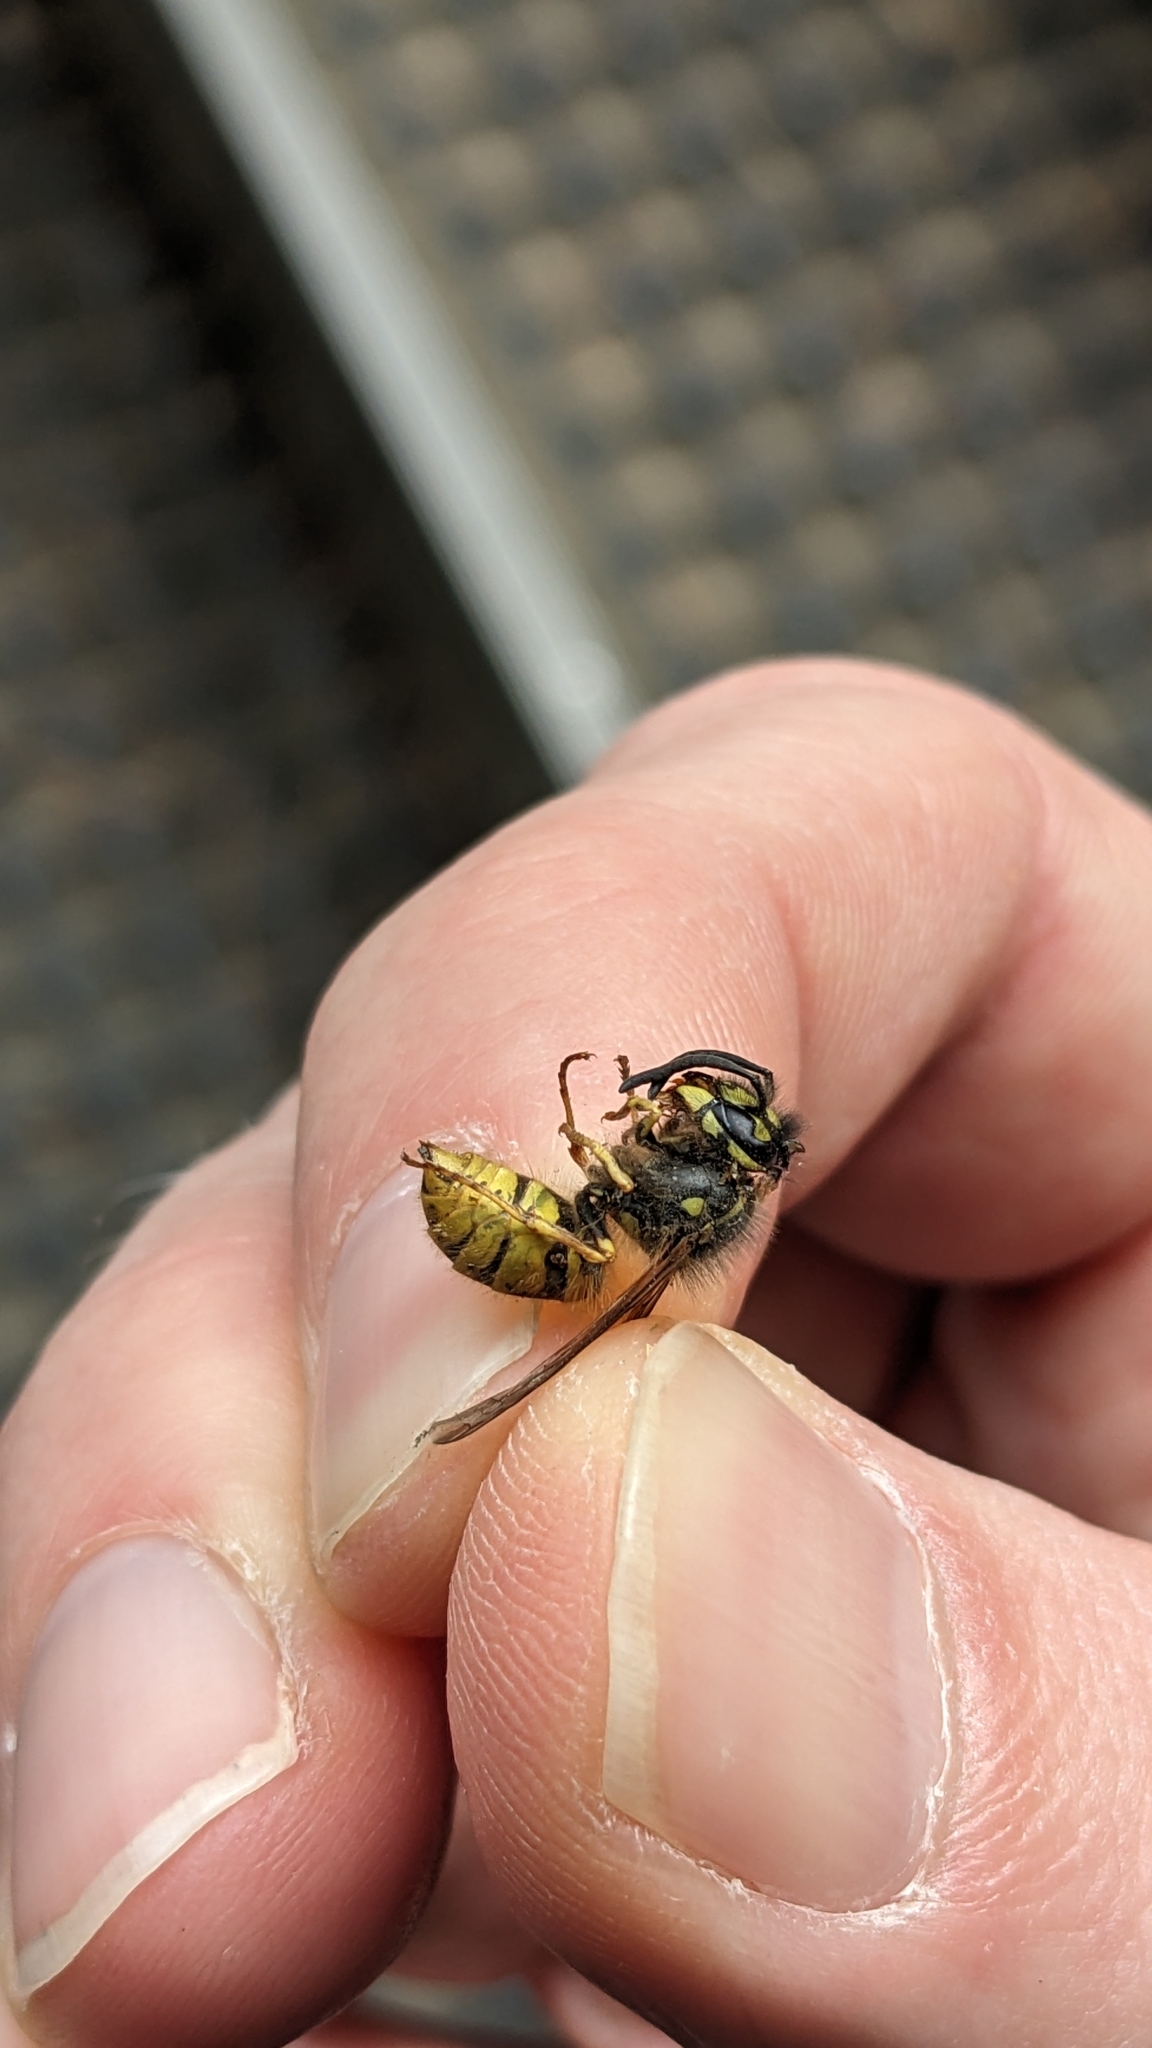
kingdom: Animalia
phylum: Arthropoda
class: Insecta
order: Hymenoptera
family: Vespidae
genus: Vespula
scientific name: Vespula vulgaris
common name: Common wasp
